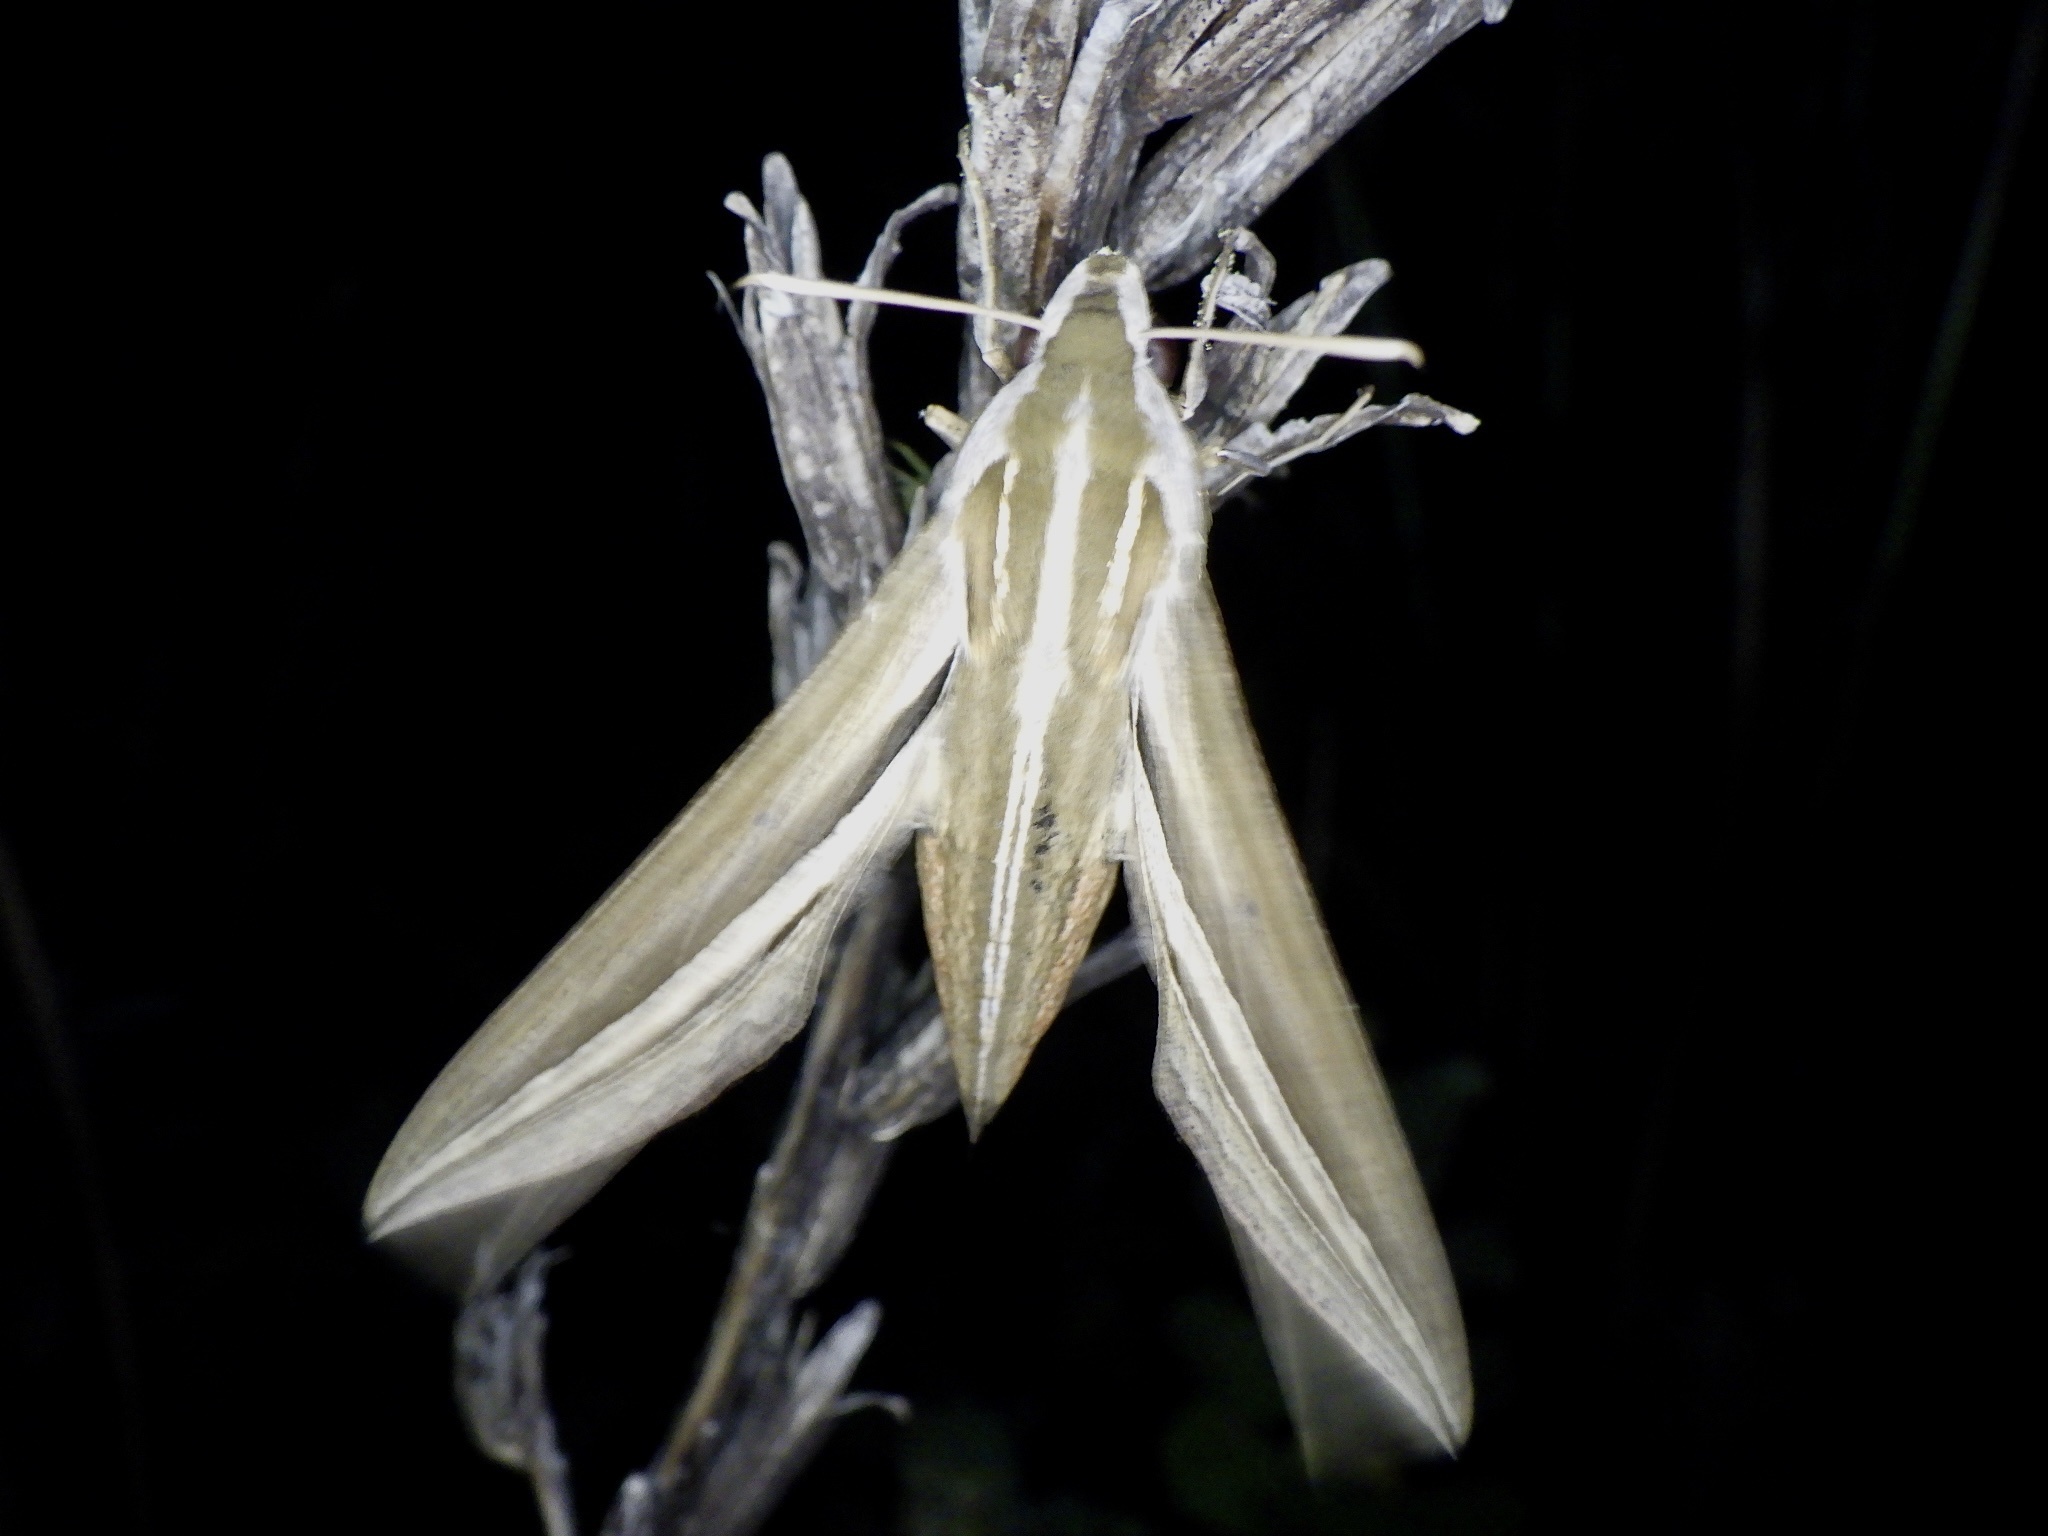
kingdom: Animalia
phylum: Arthropoda
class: Insecta
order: Lepidoptera
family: Sphingidae
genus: Theretra
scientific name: Theretra oldenlandiae
